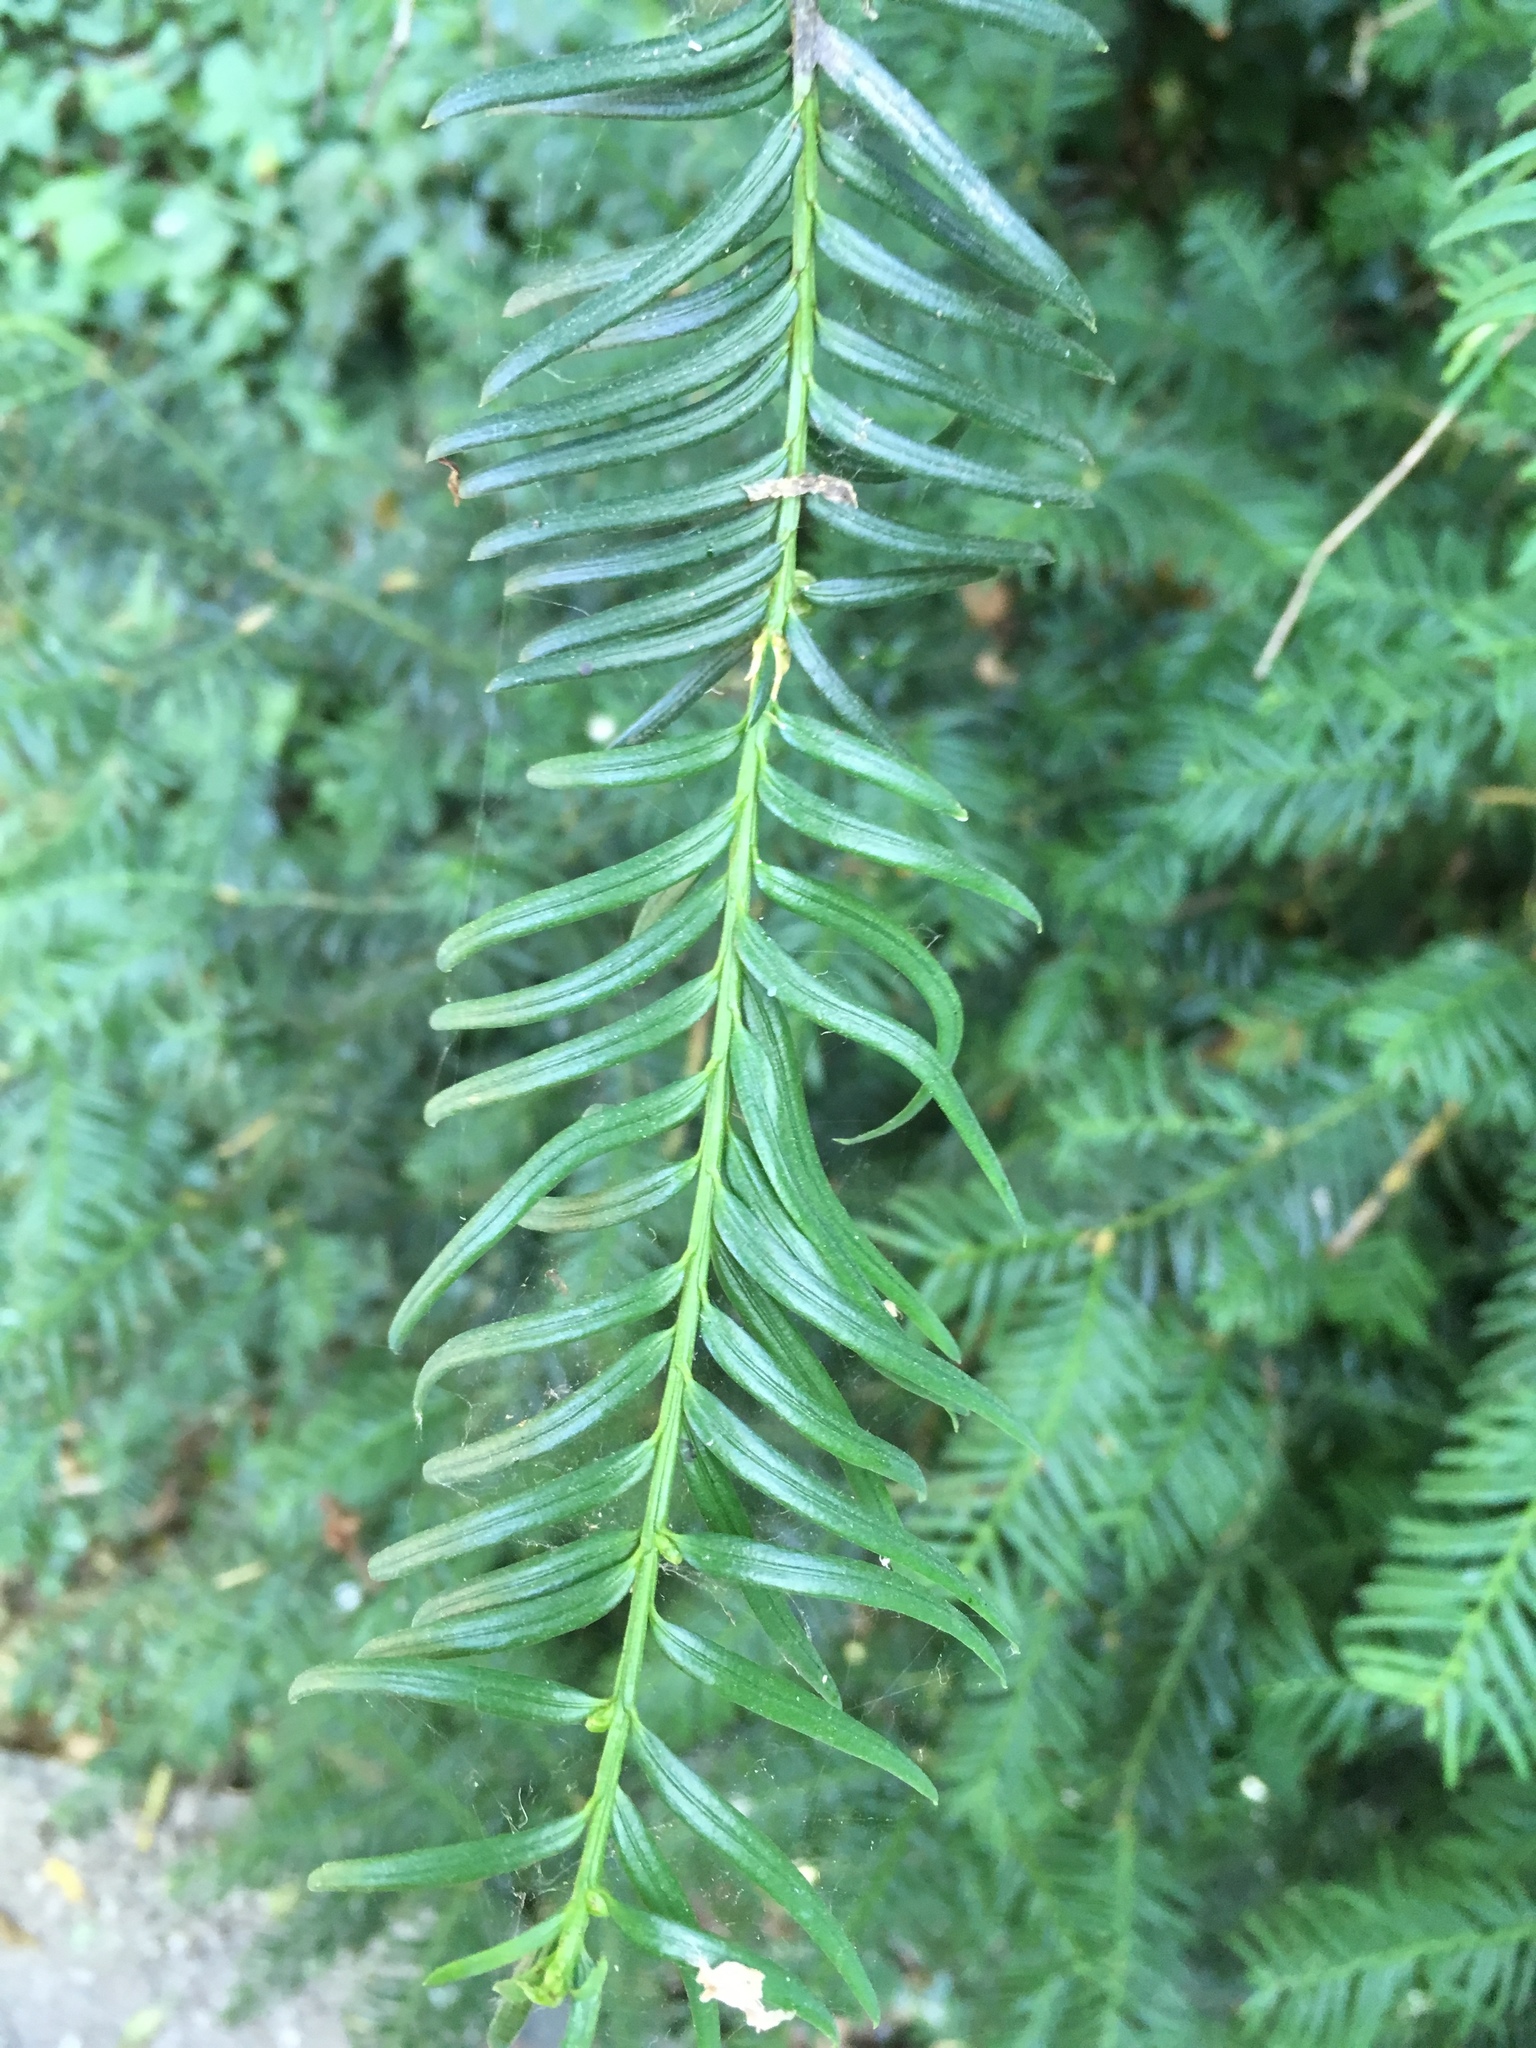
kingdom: Plantae
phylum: Tracheophyta
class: Pinopsida
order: Pinales
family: Taxaceae
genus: Taxus
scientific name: Taxus baccata
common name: Yew
